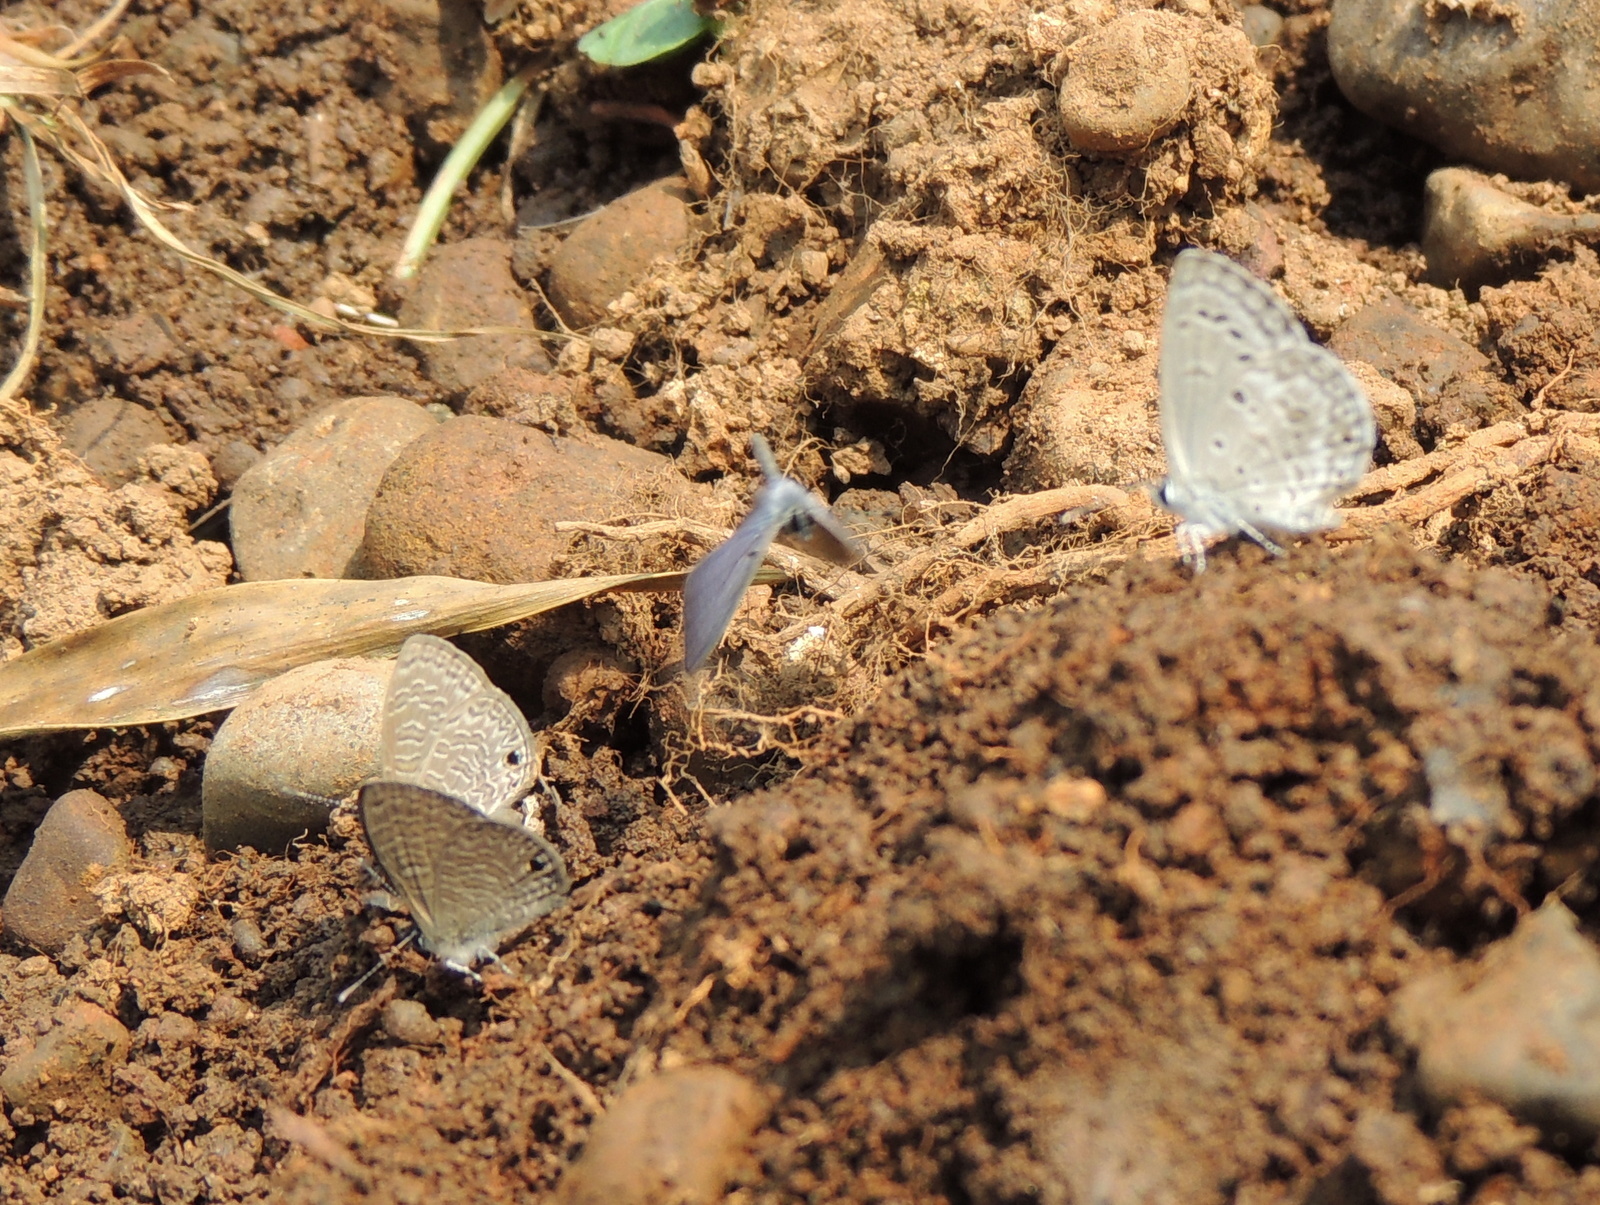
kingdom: Animalia
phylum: Arthropoda
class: Insecta
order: Lepidoptera
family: Lycaenidae
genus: Chilades
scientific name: Chilades laius
